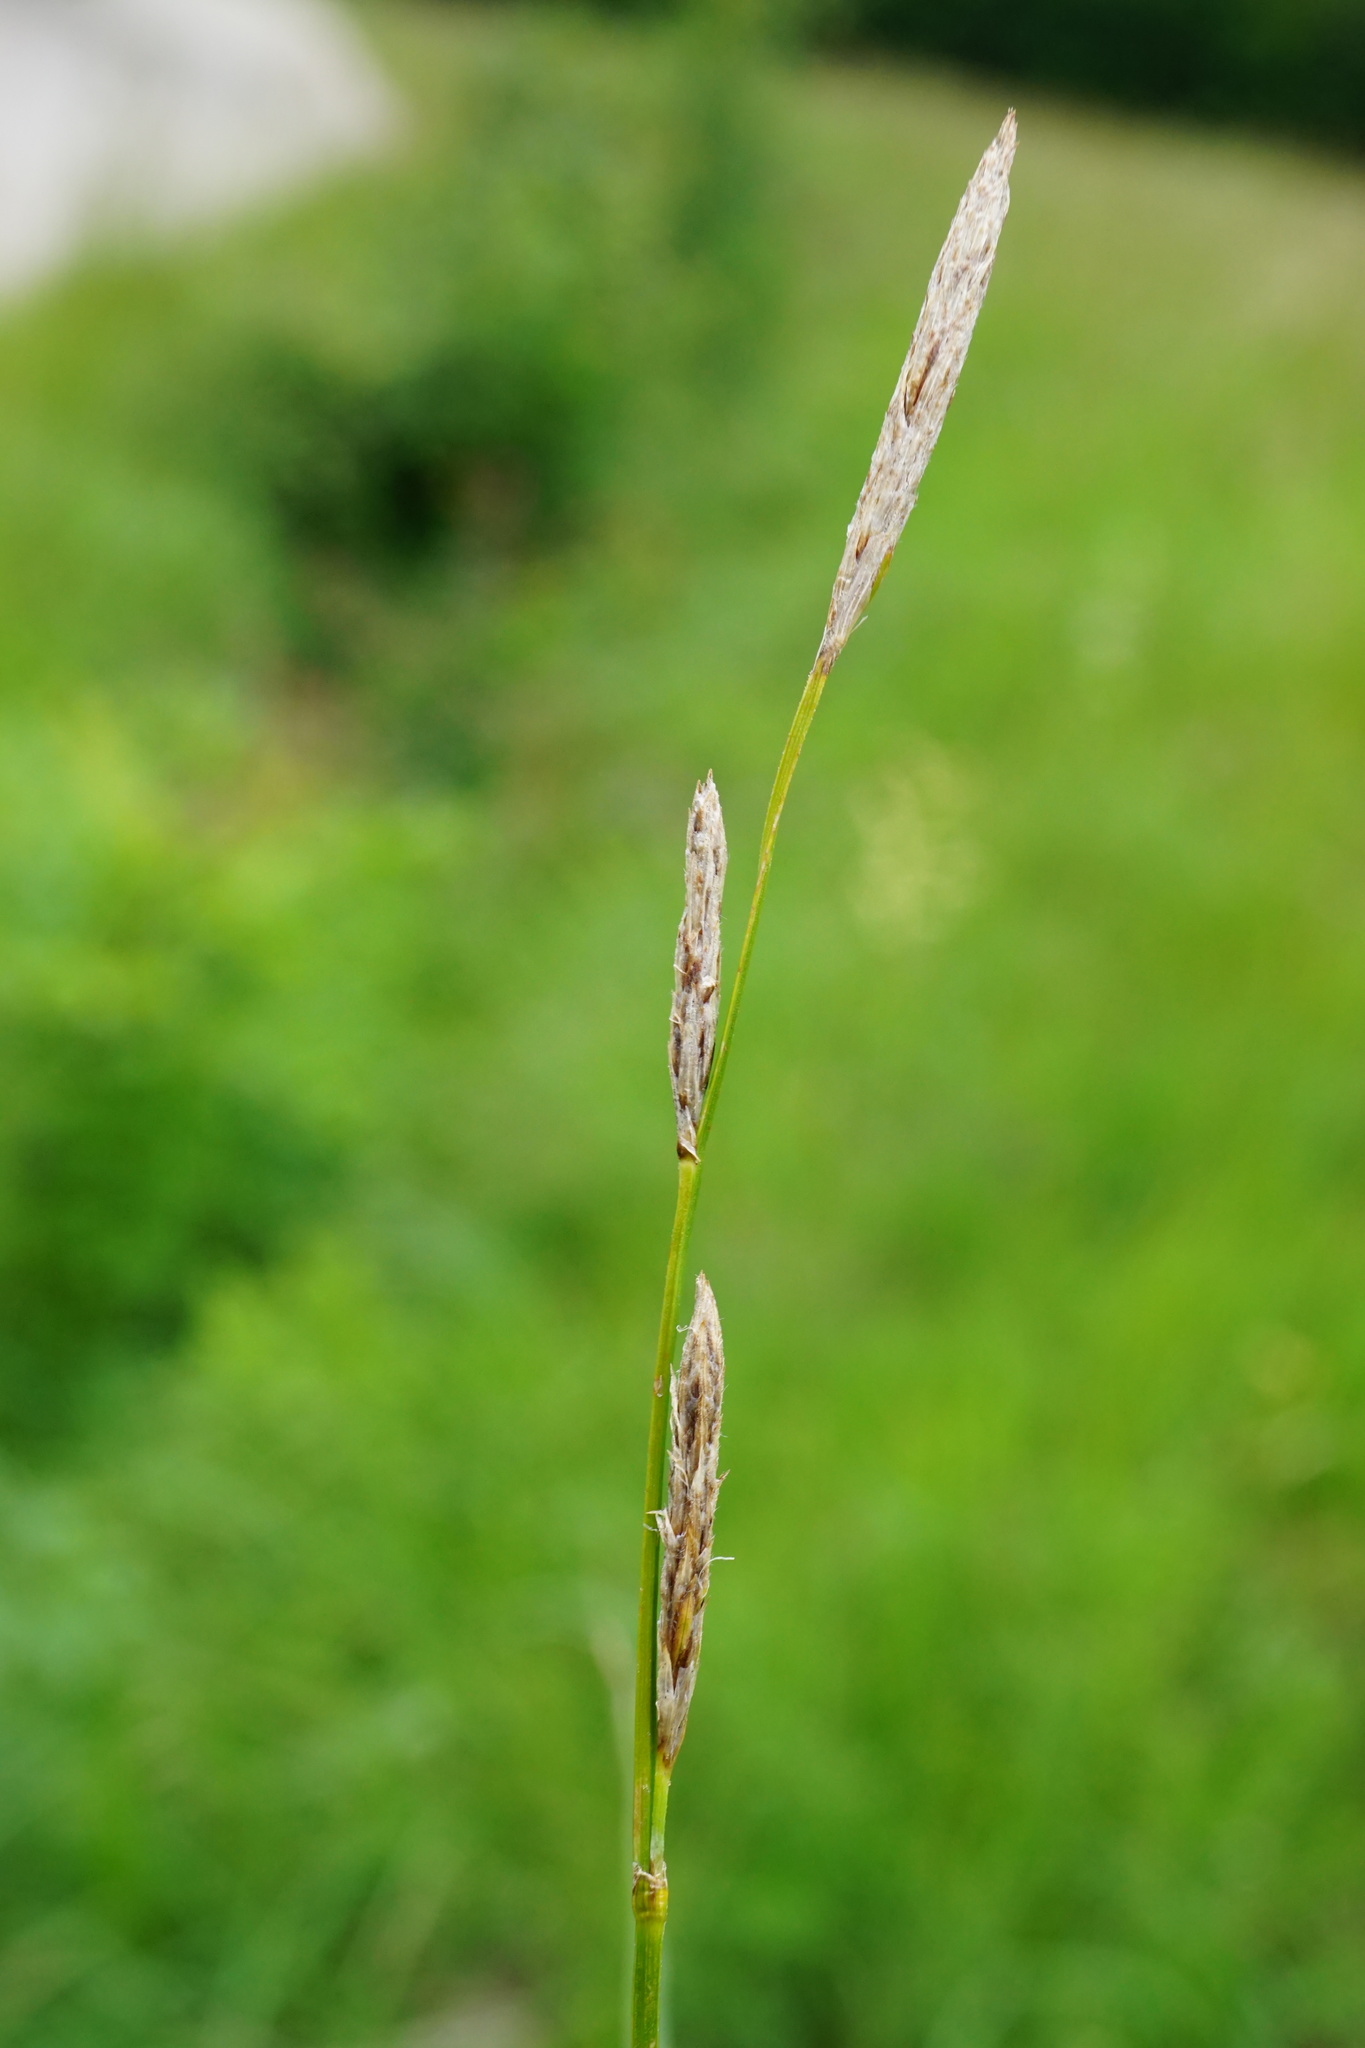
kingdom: Plantae
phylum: Tracheophyta
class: Liliopsida
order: Poales
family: Cyperaceae
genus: Carex
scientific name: Carex hirta
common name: Hairy sedge
